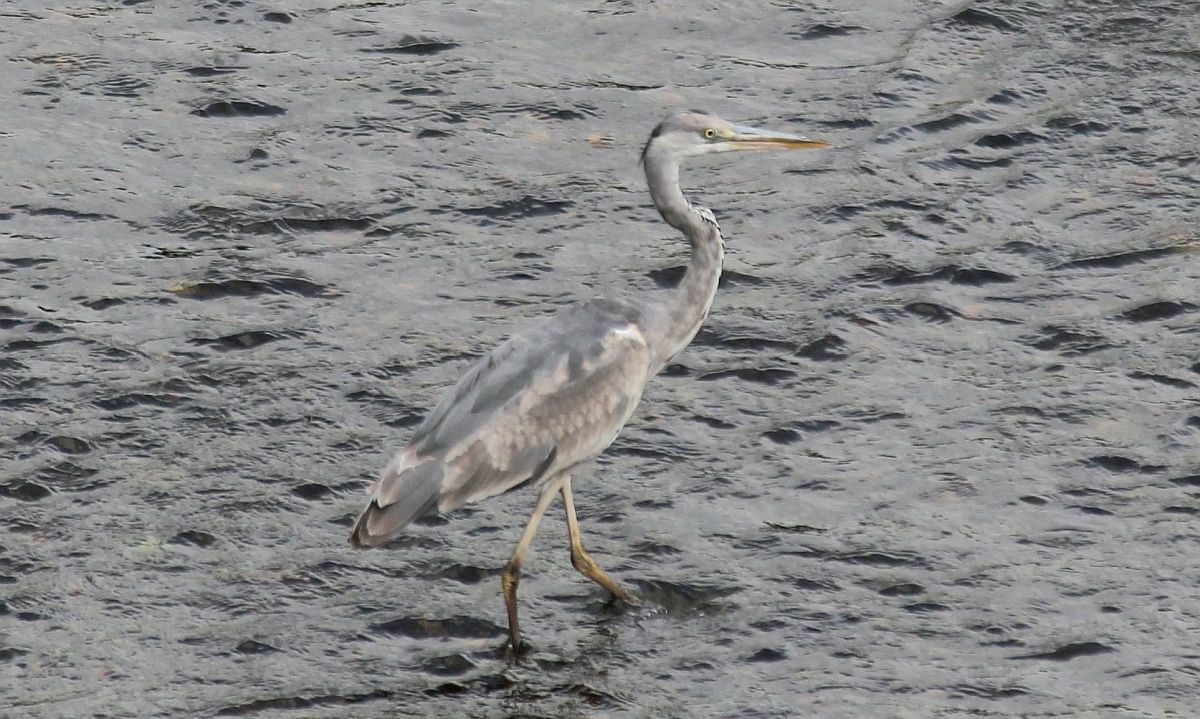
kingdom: Animalia
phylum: Chordata
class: Aves
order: Pelecaniformes
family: Ardeidae
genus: Ardea
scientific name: Ardea cinerea
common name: Grey heron
